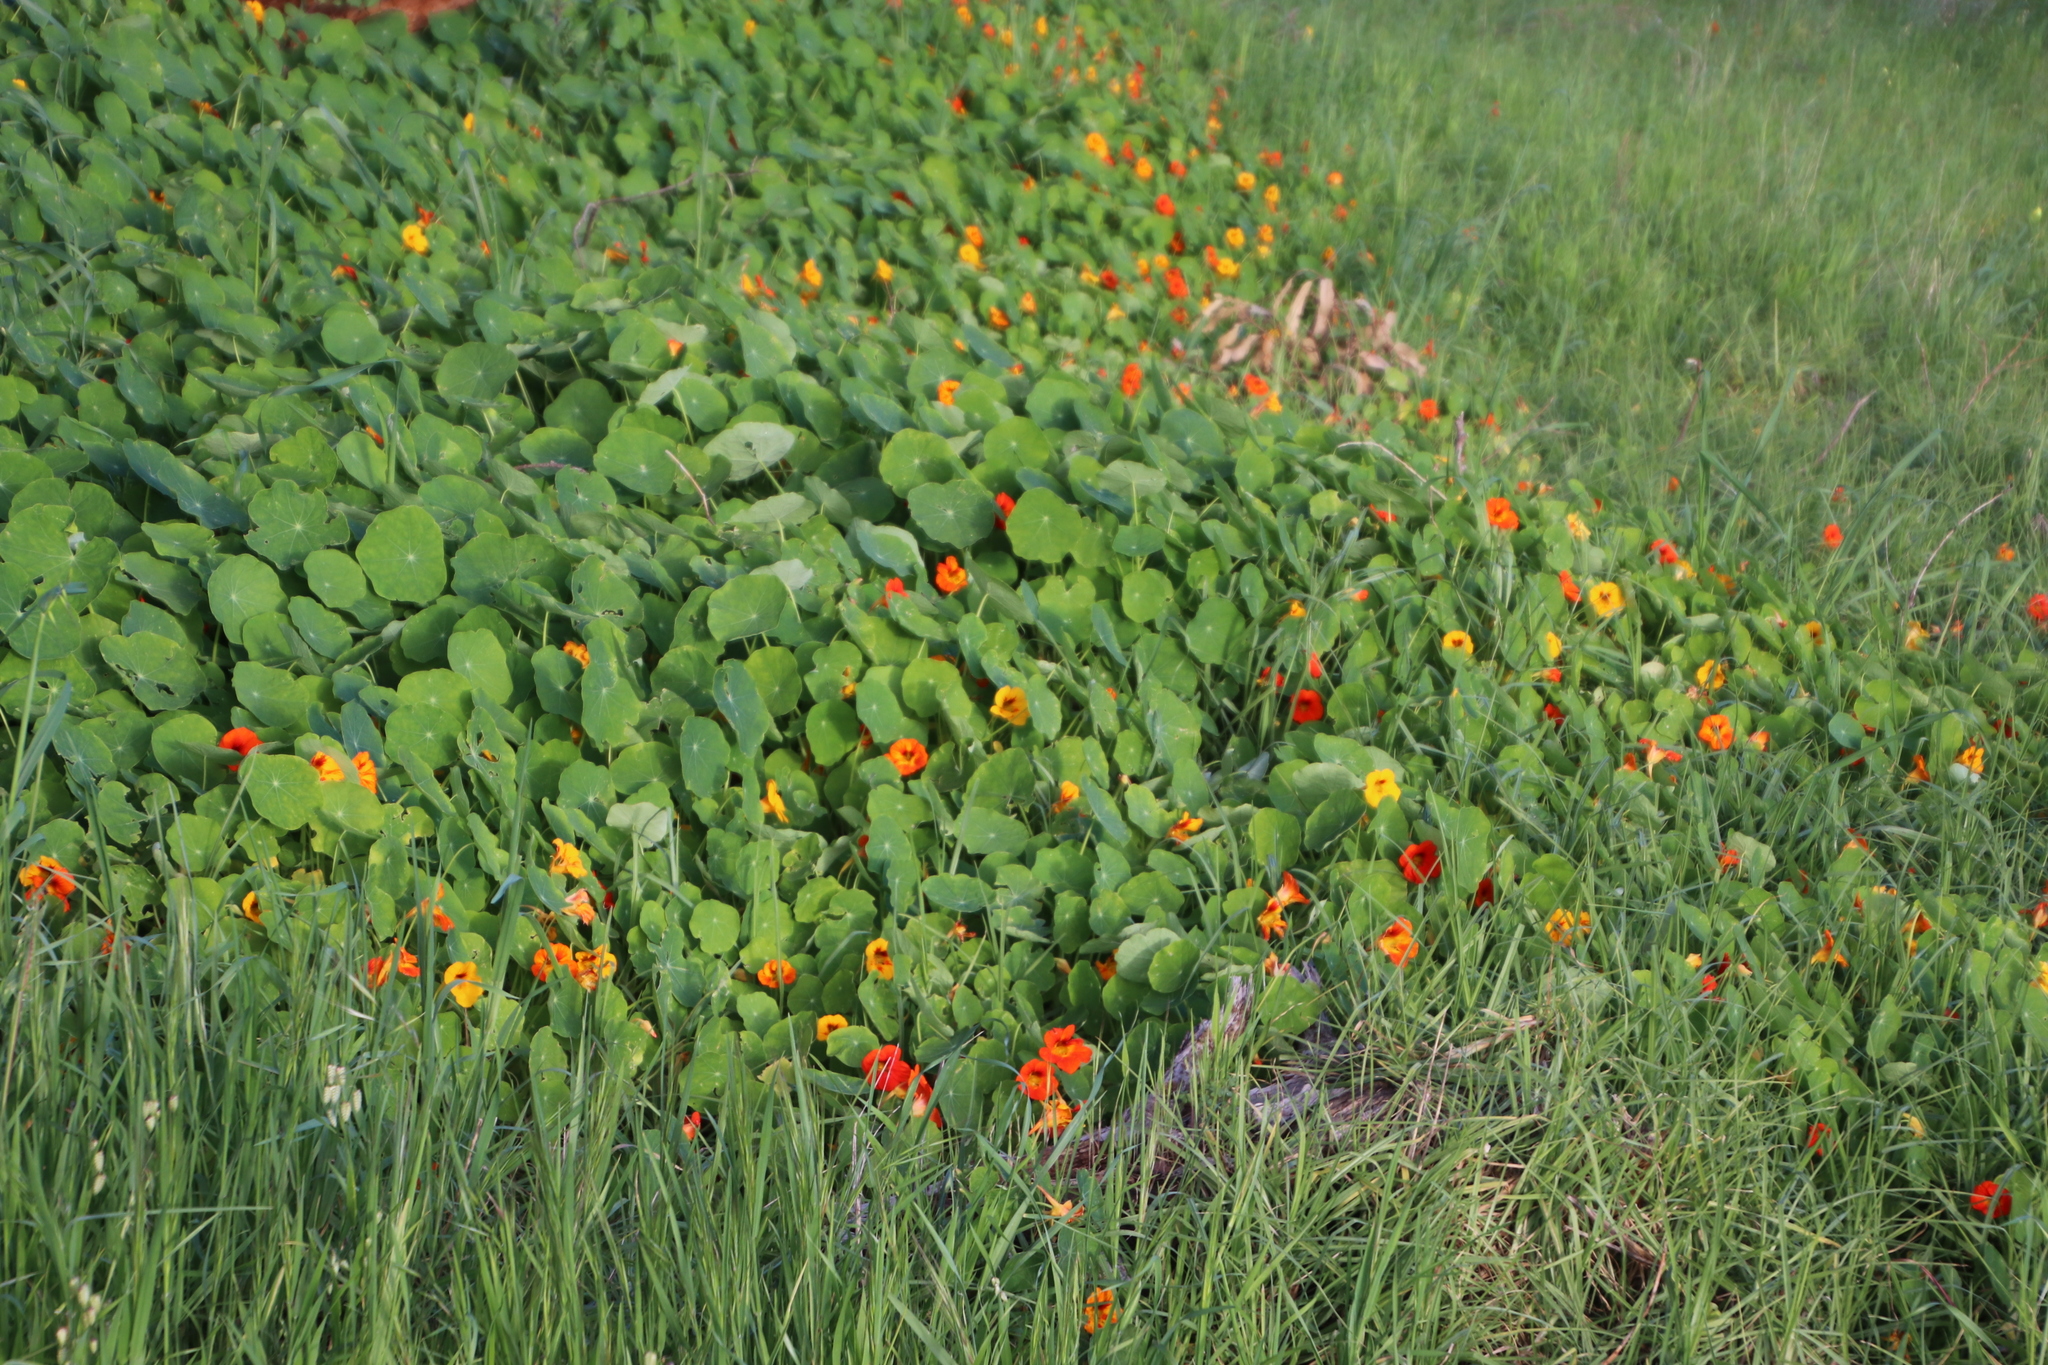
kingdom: Plantae
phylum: Tracheophyta
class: Magnoliopsida
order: Brassicales
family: Tropaeolaceae
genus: Tropaeolum
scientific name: Tropaeolum majus
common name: Nasturtium
